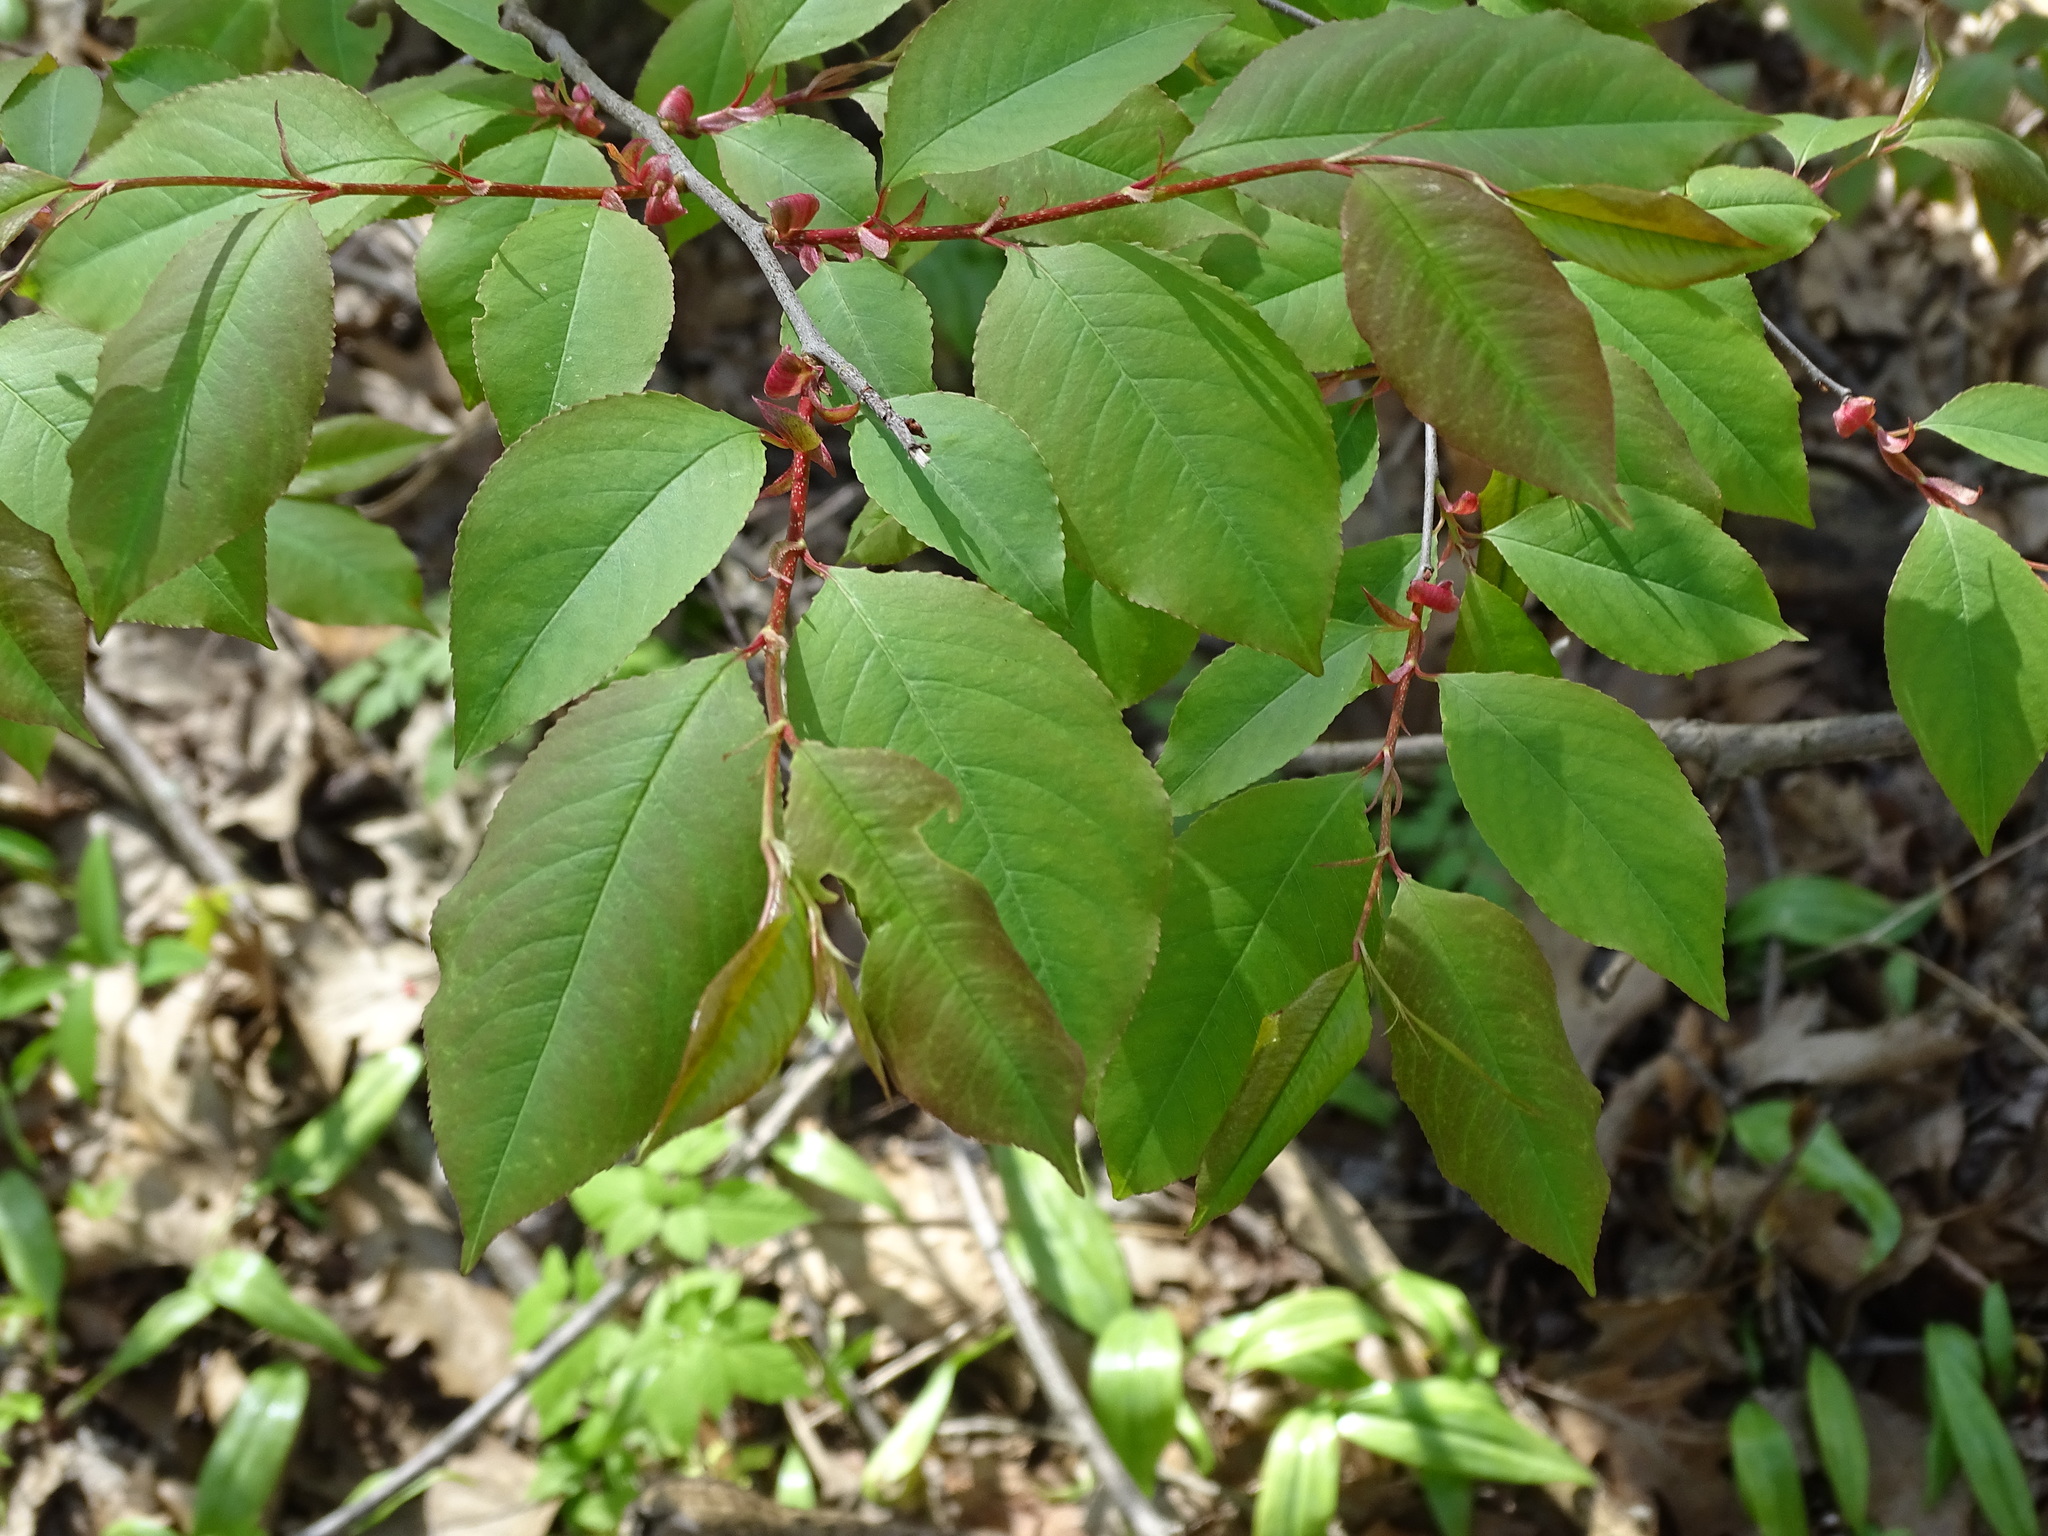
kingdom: Plantae
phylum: Tracheophyta
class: Magnoliopsida
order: Rosales
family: Rosaceae
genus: Prunus
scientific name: Prunus serotina
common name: Black cherry
